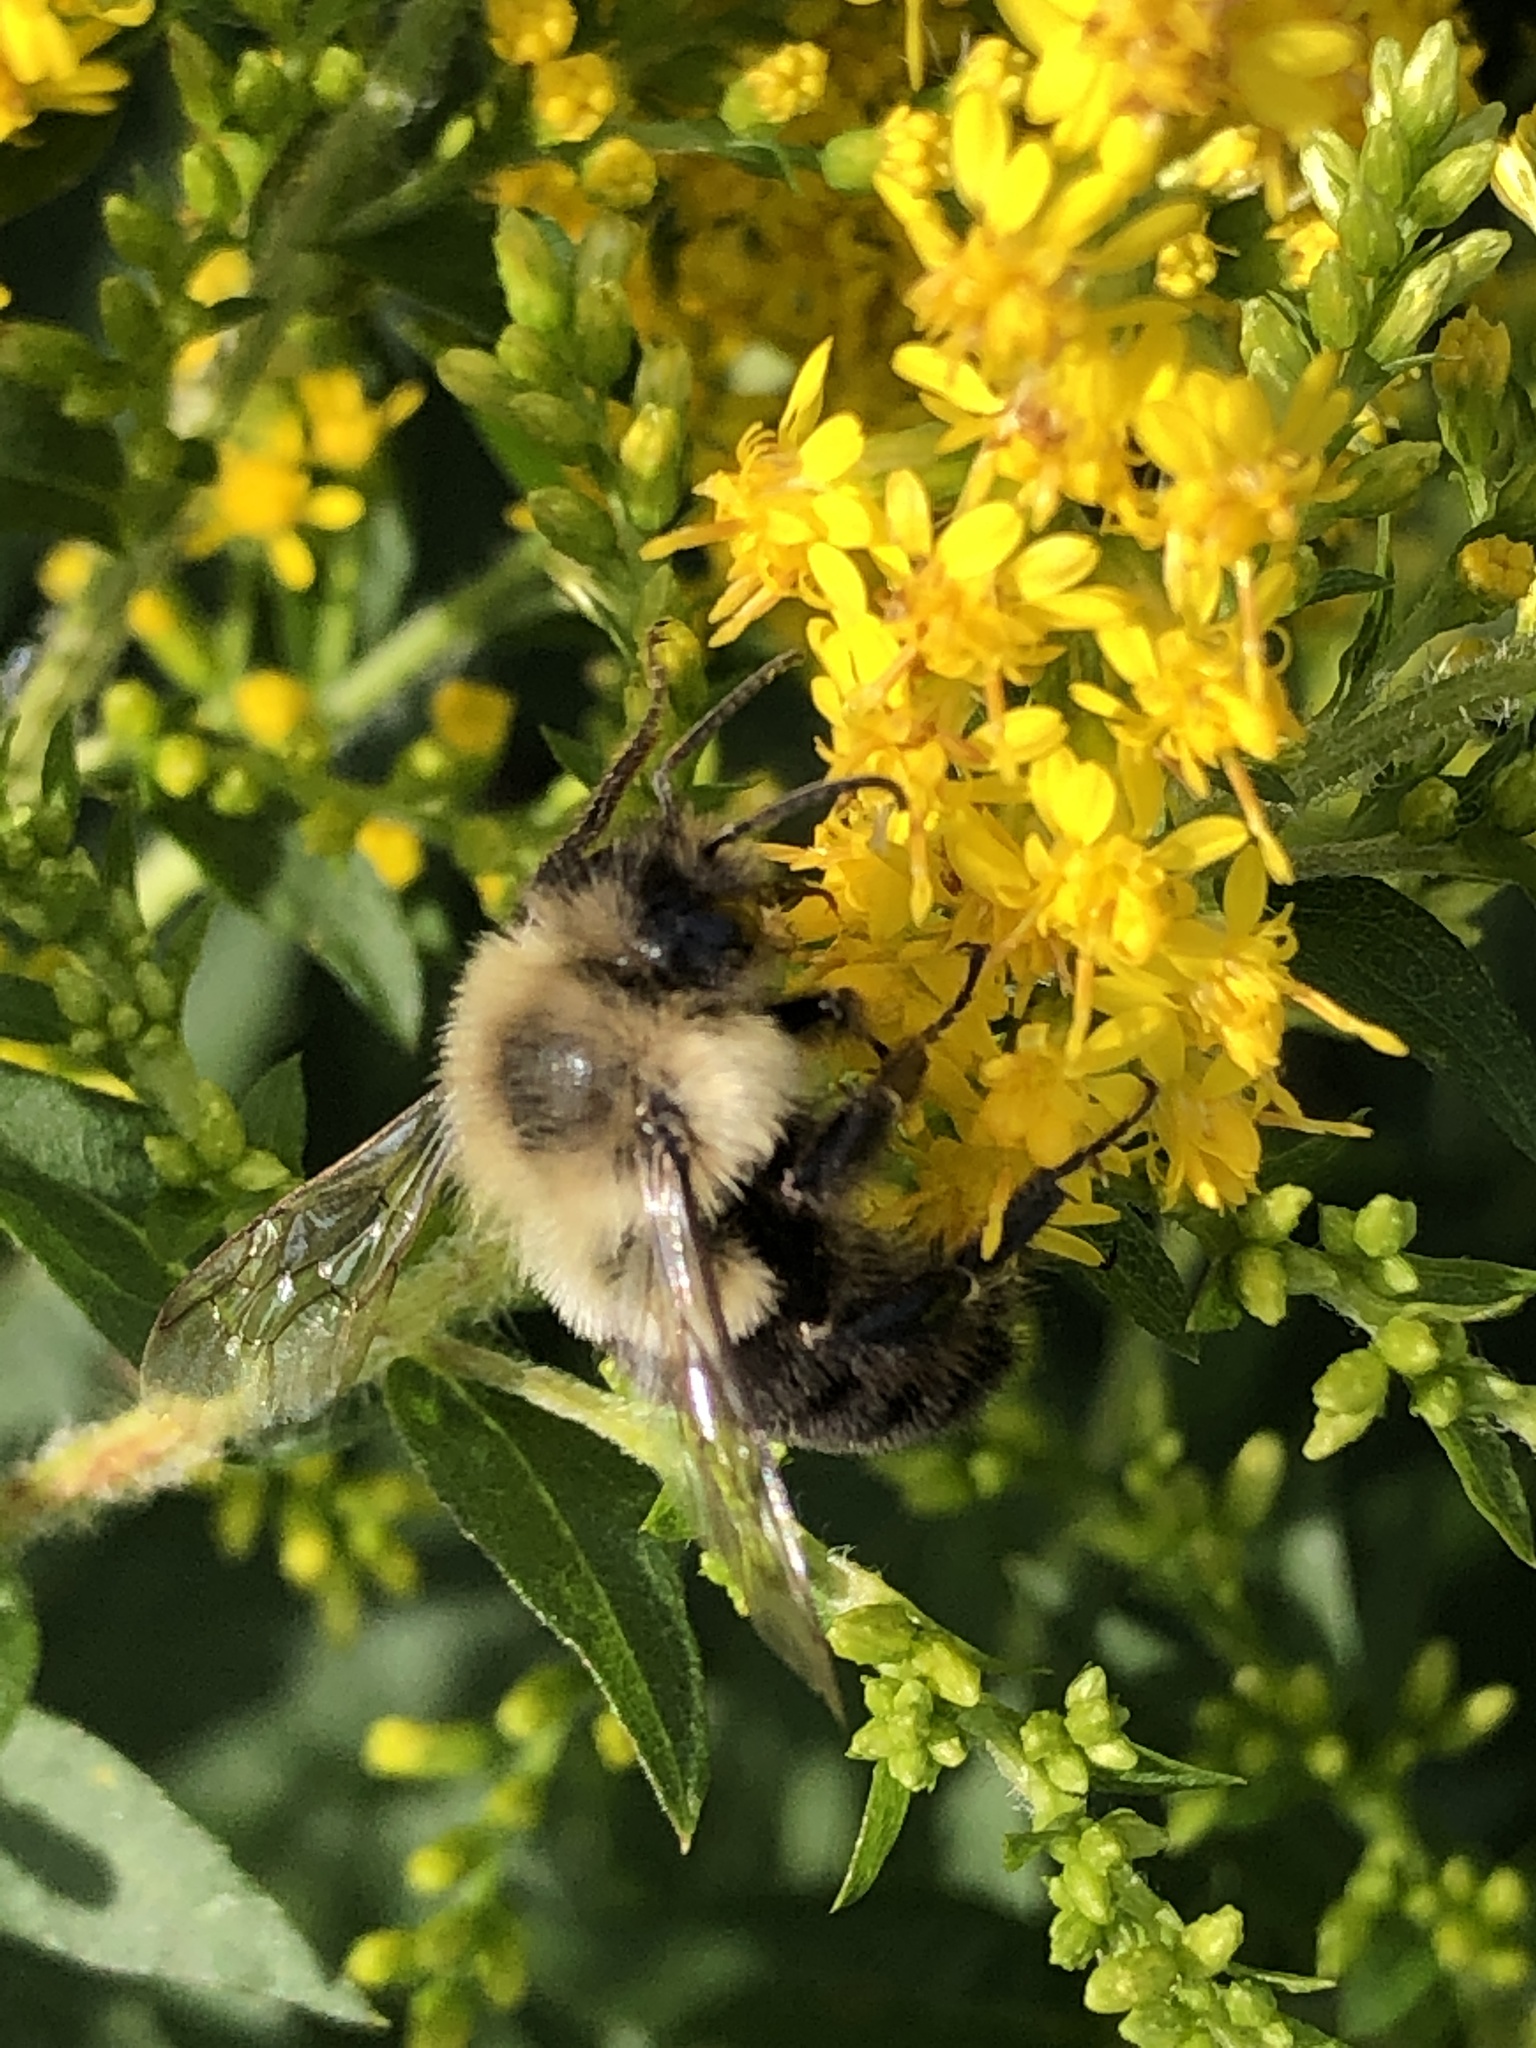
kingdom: Animalia
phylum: Arthropoda
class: Insecta
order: Hymenoptera
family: Apidae
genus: Bombus
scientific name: Bombus impatiens
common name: Common eastern bumble bee
